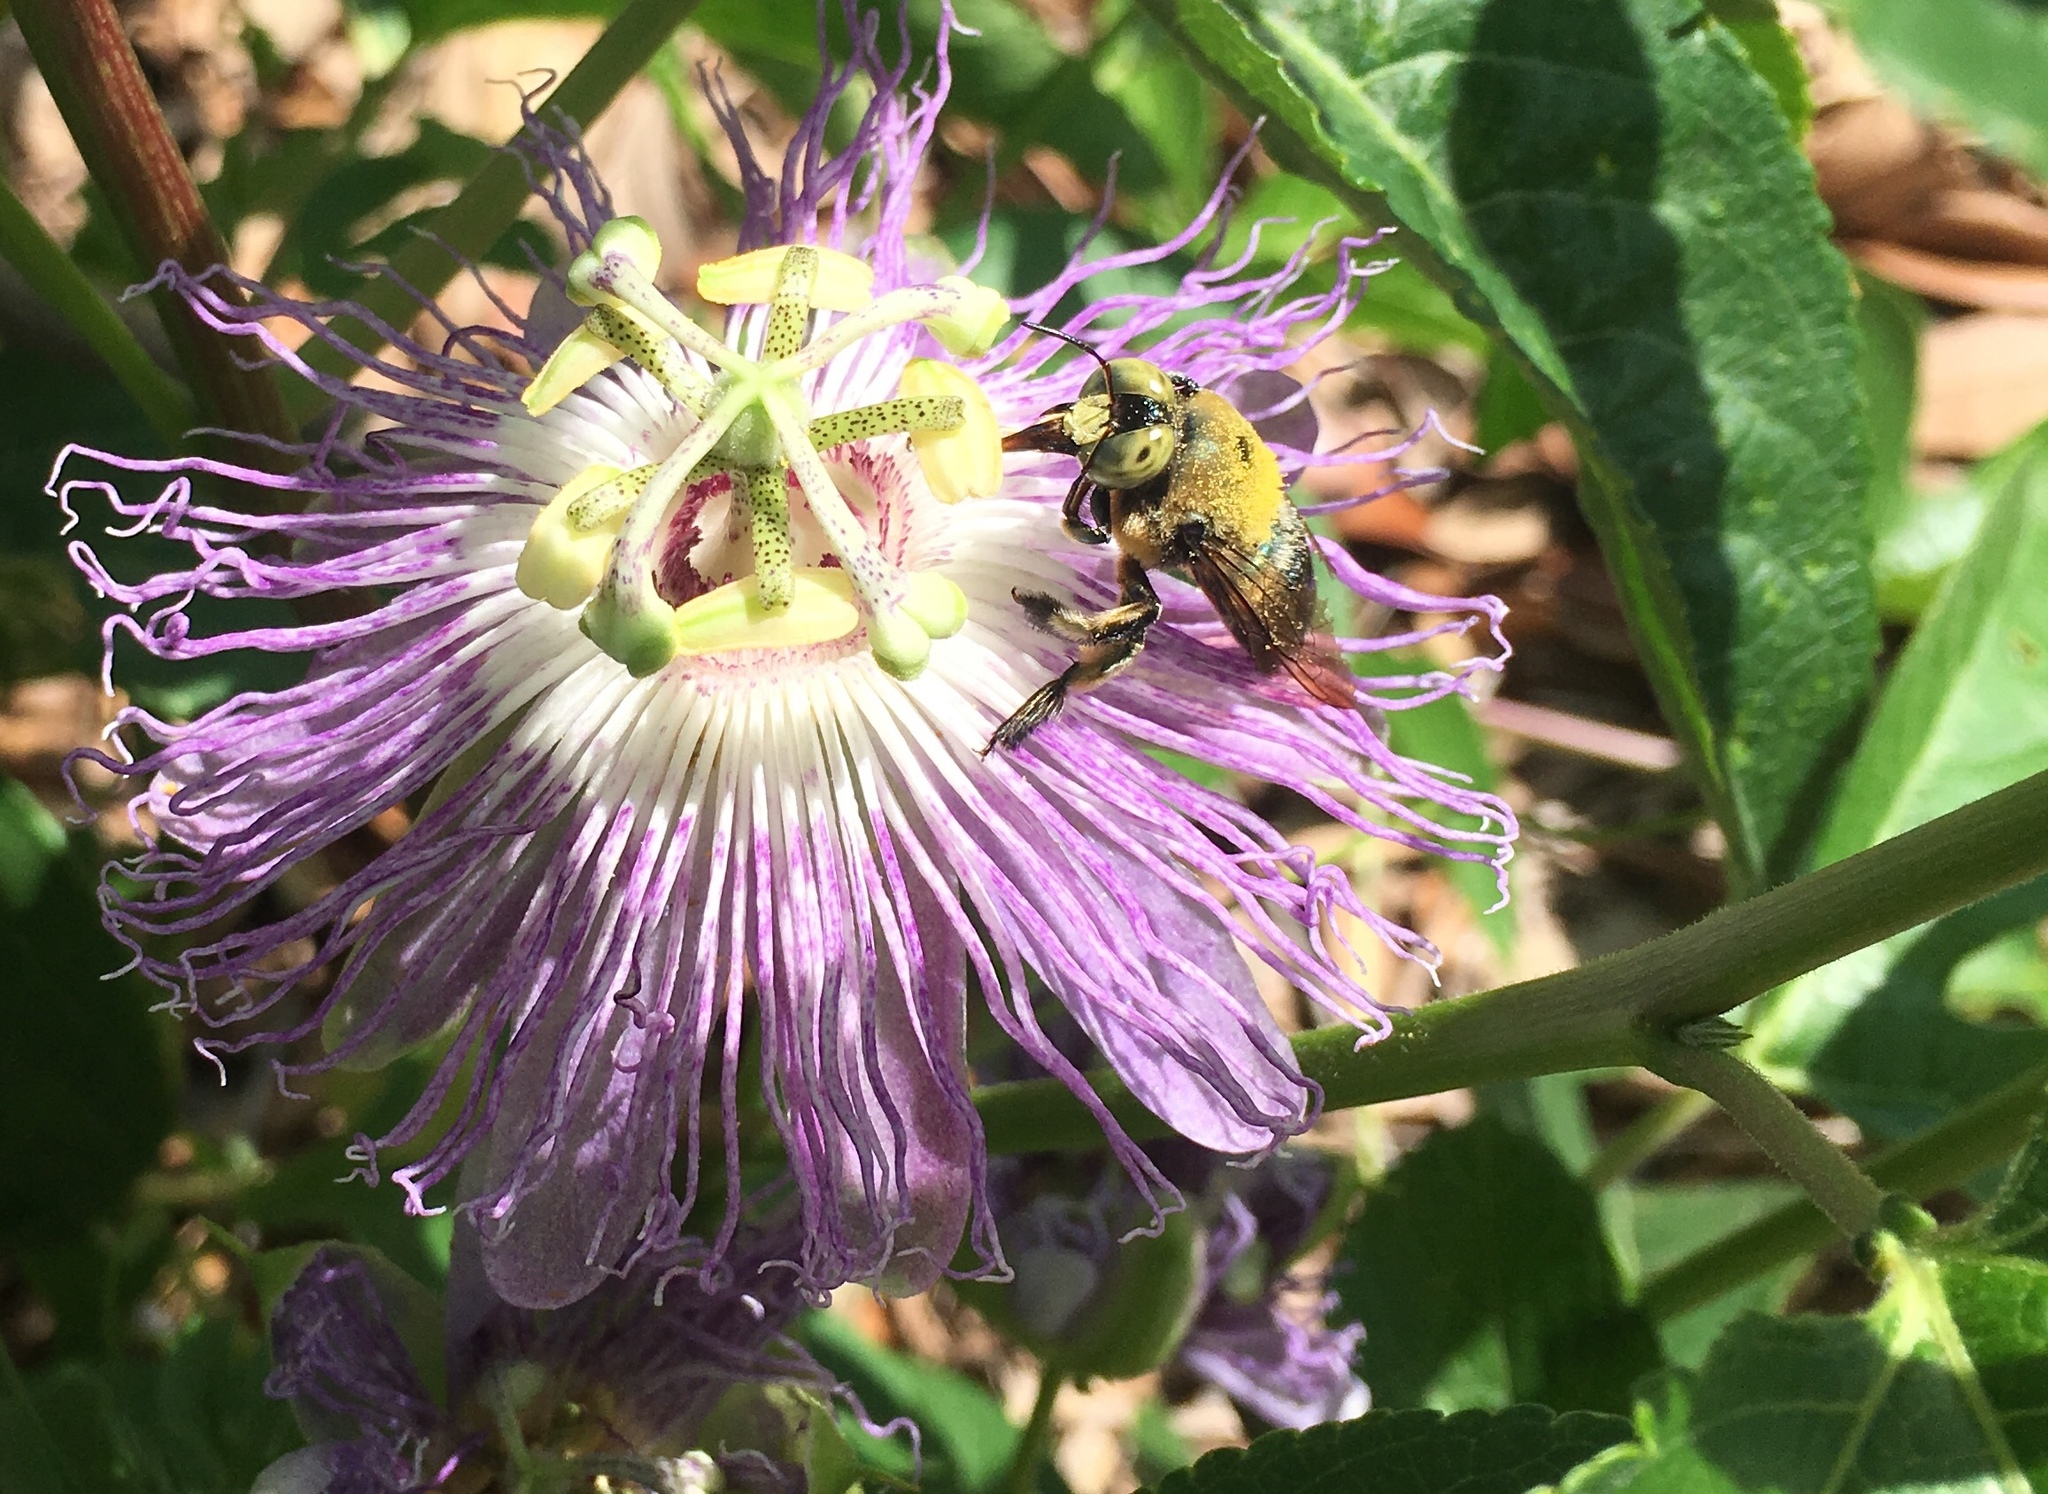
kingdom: Plantae
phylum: Tracheophyta
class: Magnoliopsida
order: Malpighiales
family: Passifloraceae
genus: Passiflora
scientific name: Passiflora incarnata
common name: Apricot-vine
